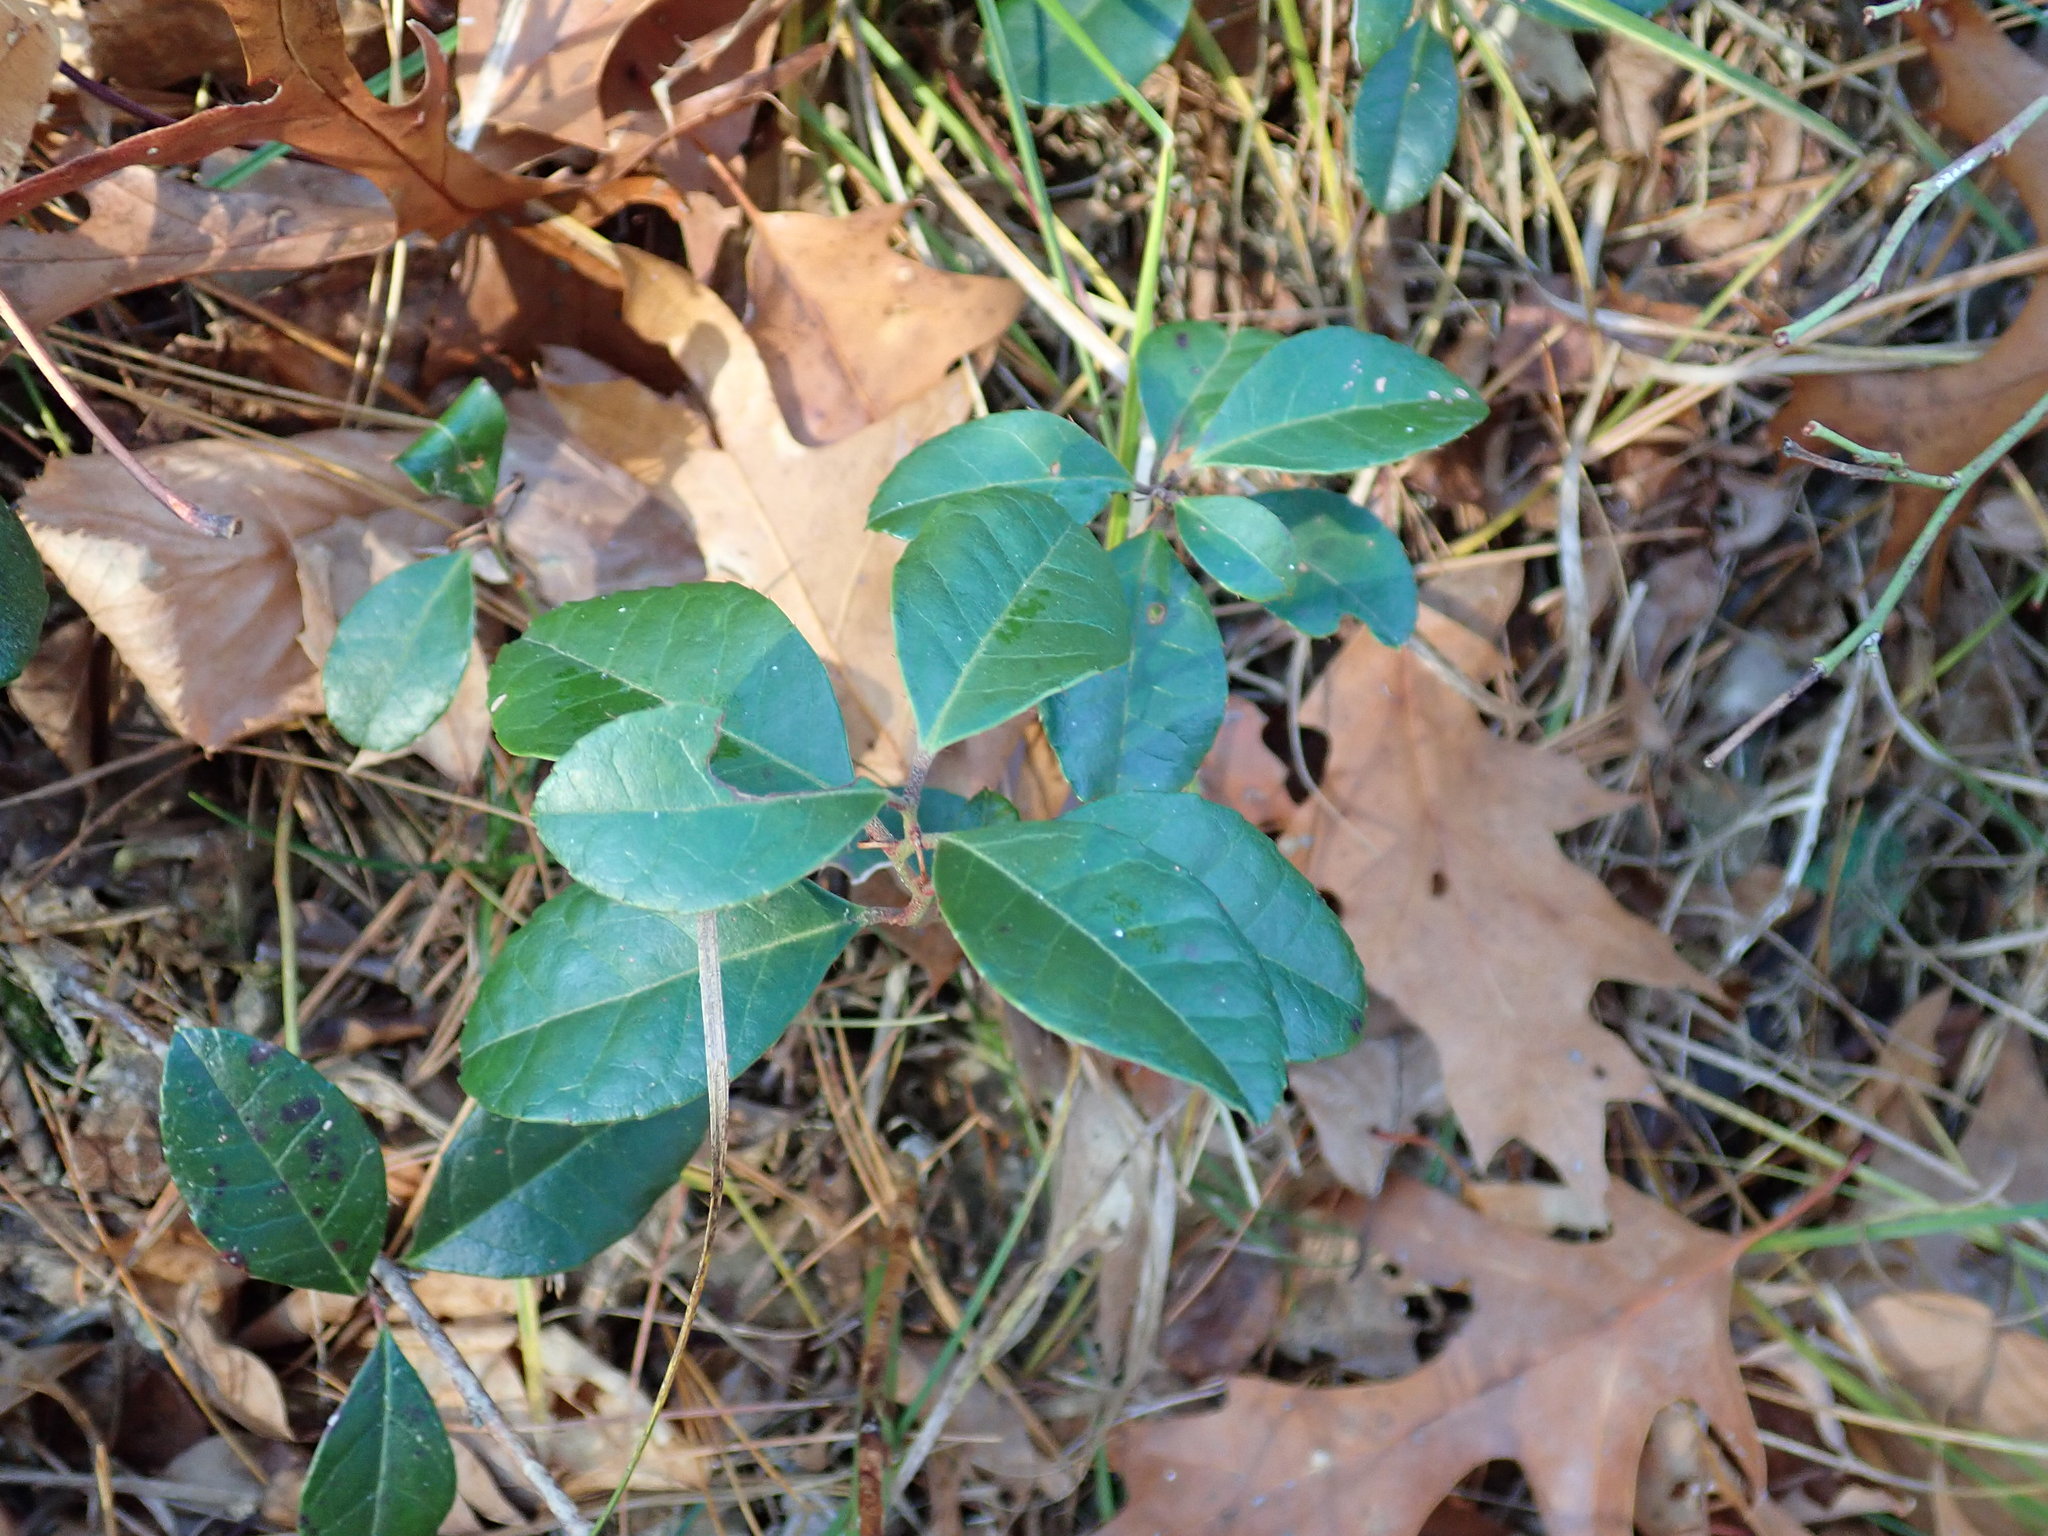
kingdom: Plantae
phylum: Tracheophyta
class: Magnoliopsida
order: Ericales
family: Ericaceae
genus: Gaultheria
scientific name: Gaultheria procumbens
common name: Checkerberry
